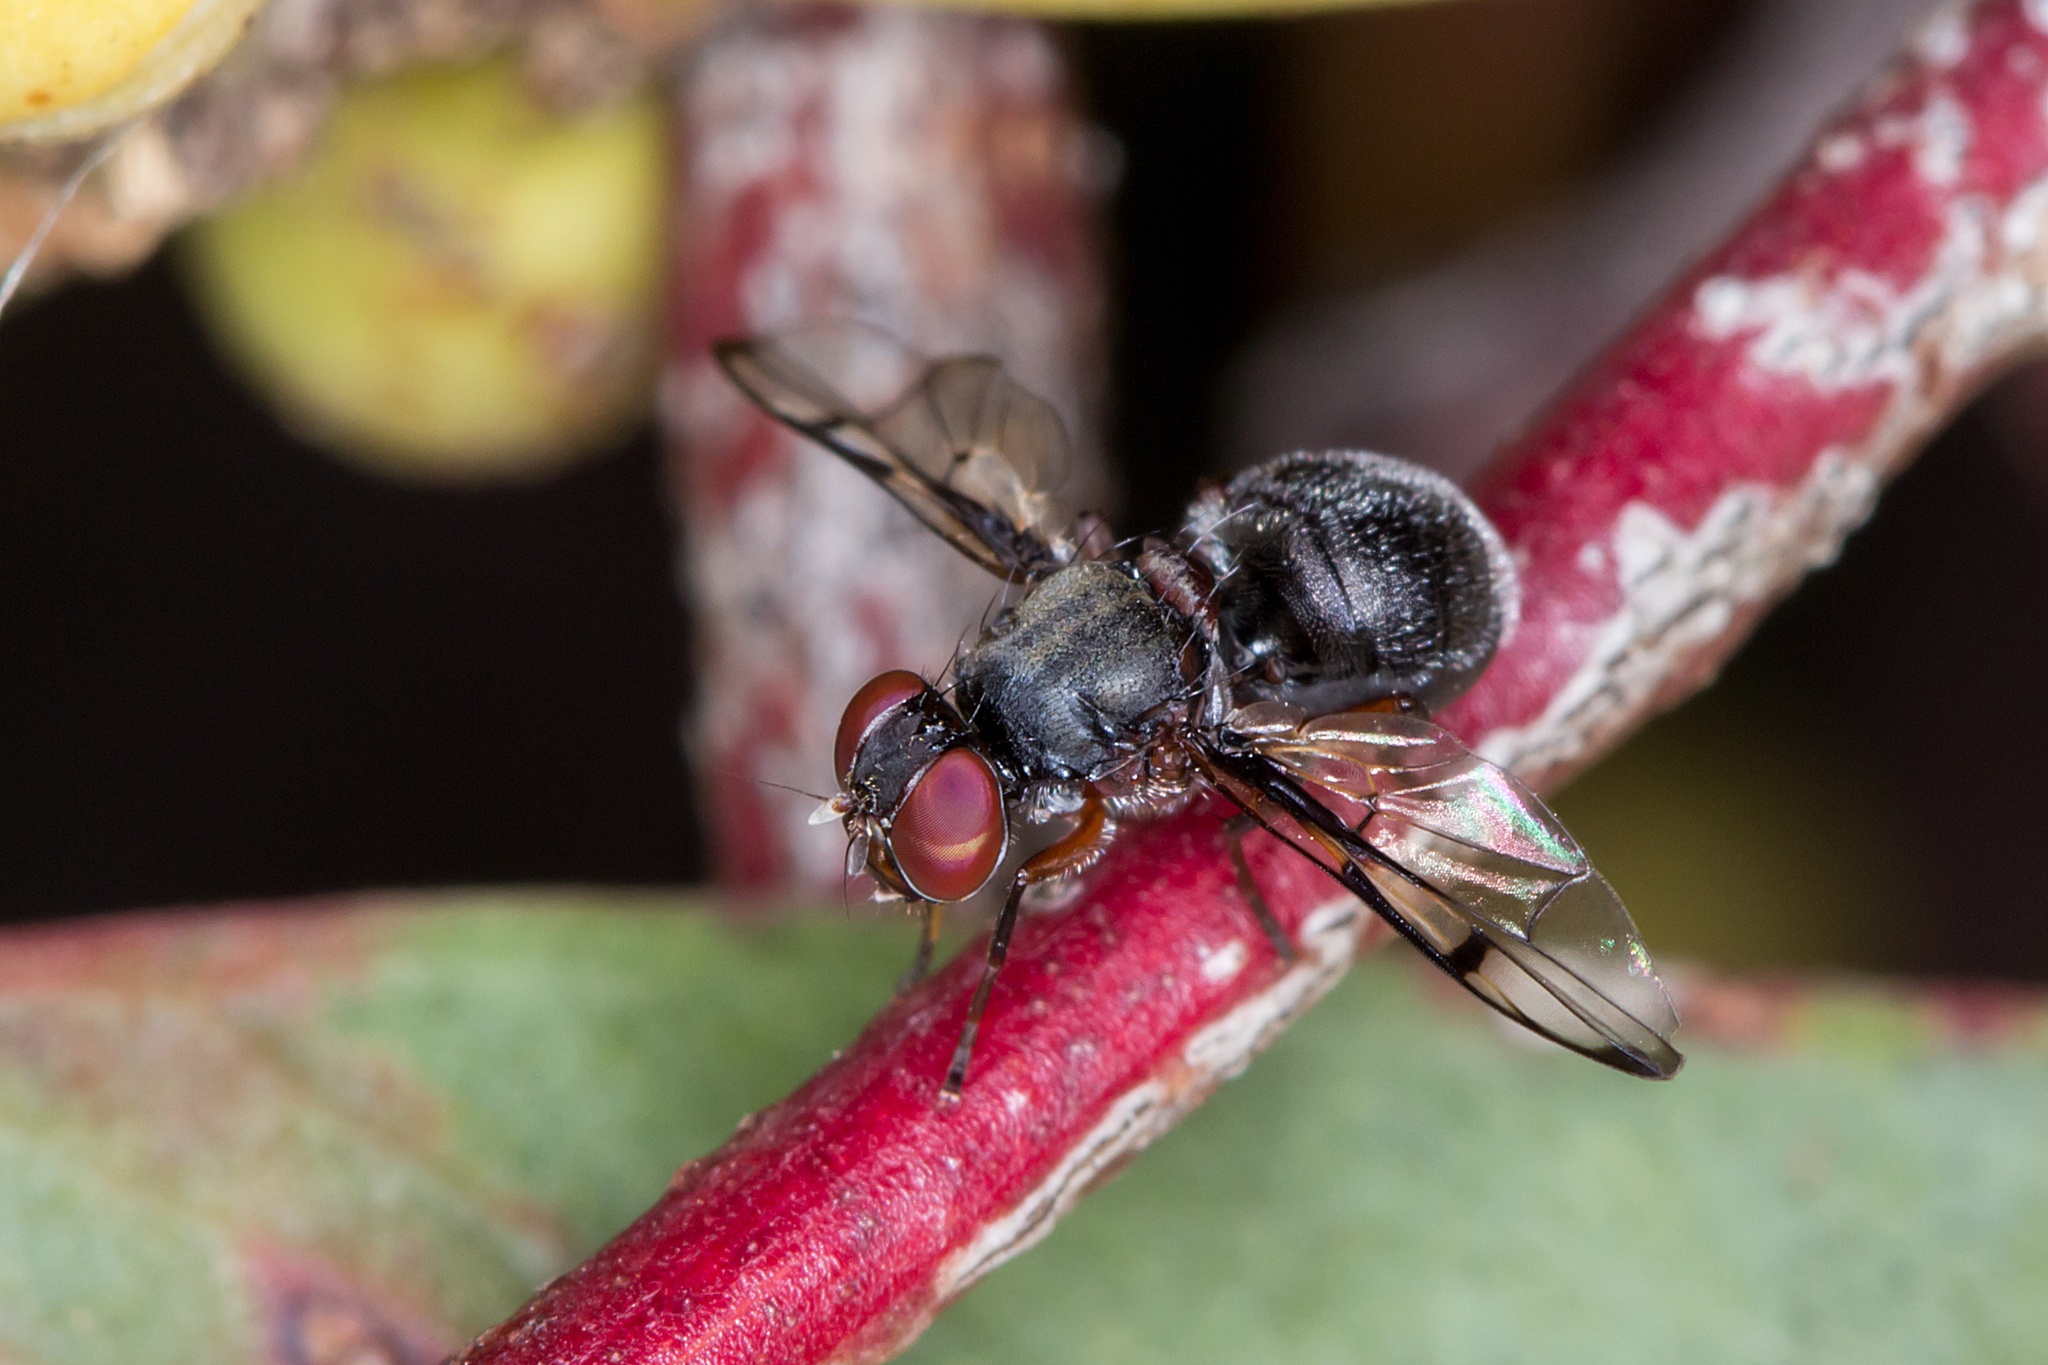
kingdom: Animalia
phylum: Arthropoda
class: Insecta
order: Diptera
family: Platystomatidae
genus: Pogonortalis
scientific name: Pogonortalis doclea
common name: Boatman fly
